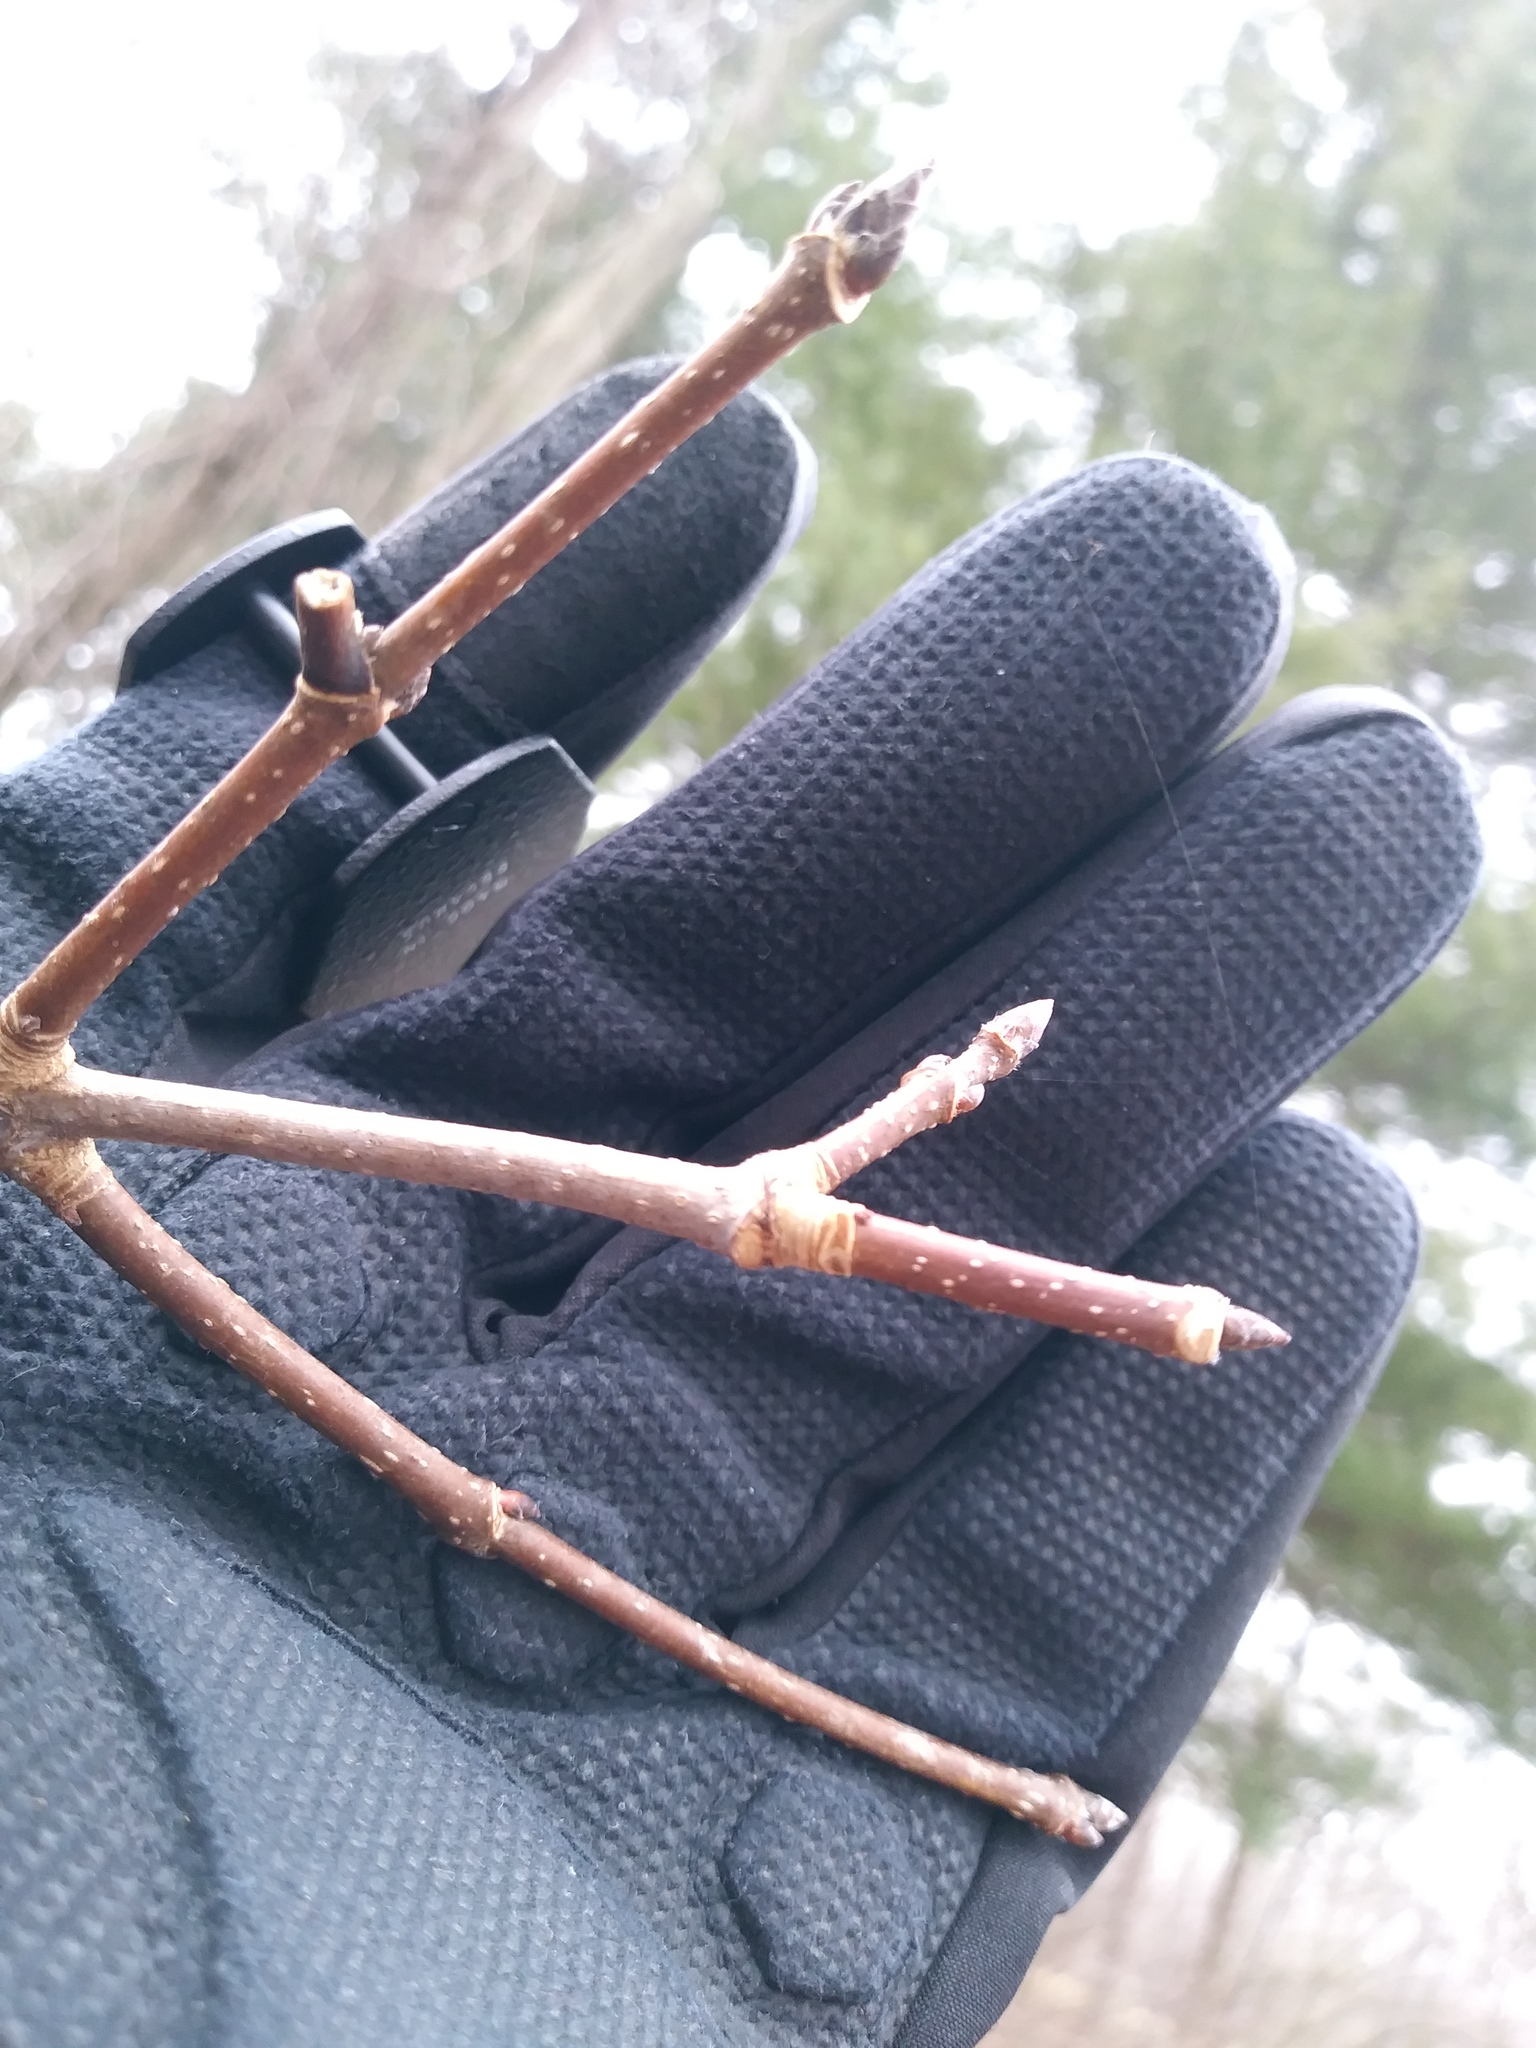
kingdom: Plantae
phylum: Tracheophyta
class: Magnoliopsida
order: Sapindales
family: Sapindaceae
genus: Acer
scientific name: Acer saccharum
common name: Sugar maple
